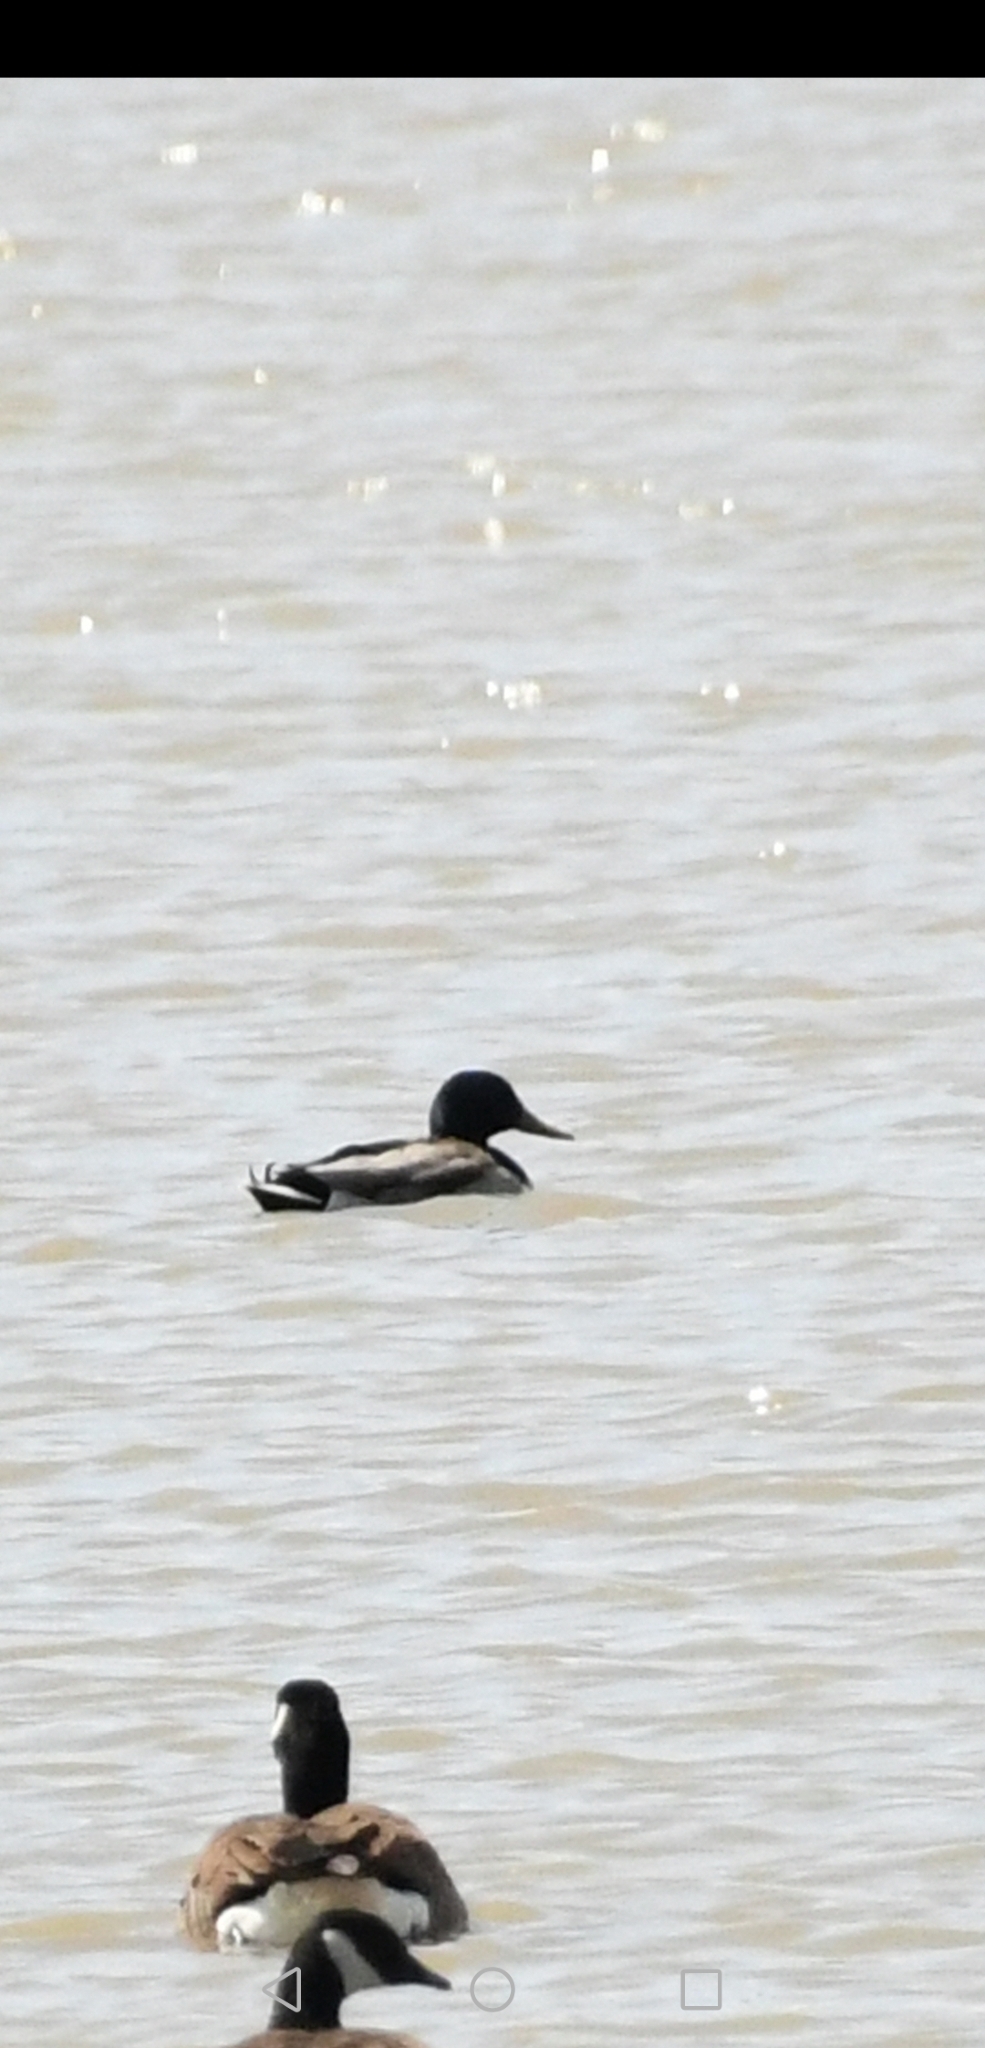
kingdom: Animalia
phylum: Chordata
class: Aves
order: Anseriformes
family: Anatidae
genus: Anas
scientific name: Anas platyrhynchos
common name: Mallard
